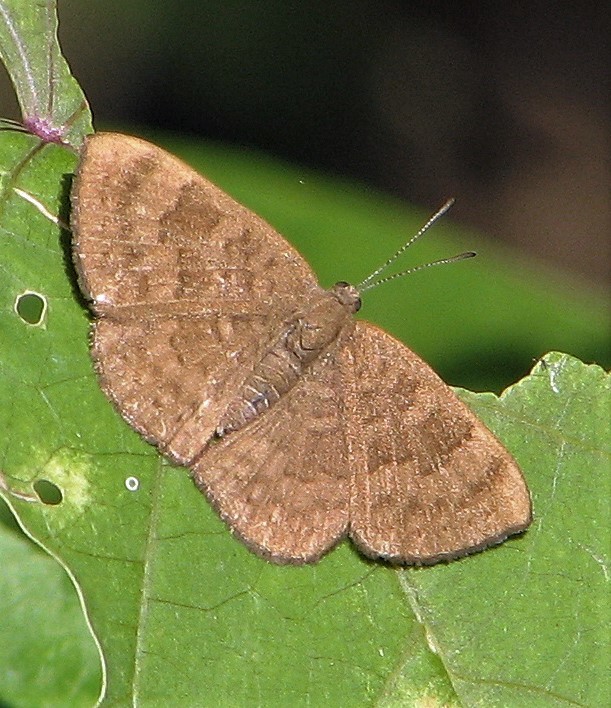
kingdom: Animalia
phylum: Arthropoda
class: Insecta
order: Lepidoptera
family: Lycaenidae
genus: Emesis
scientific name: Emesis ocypore
